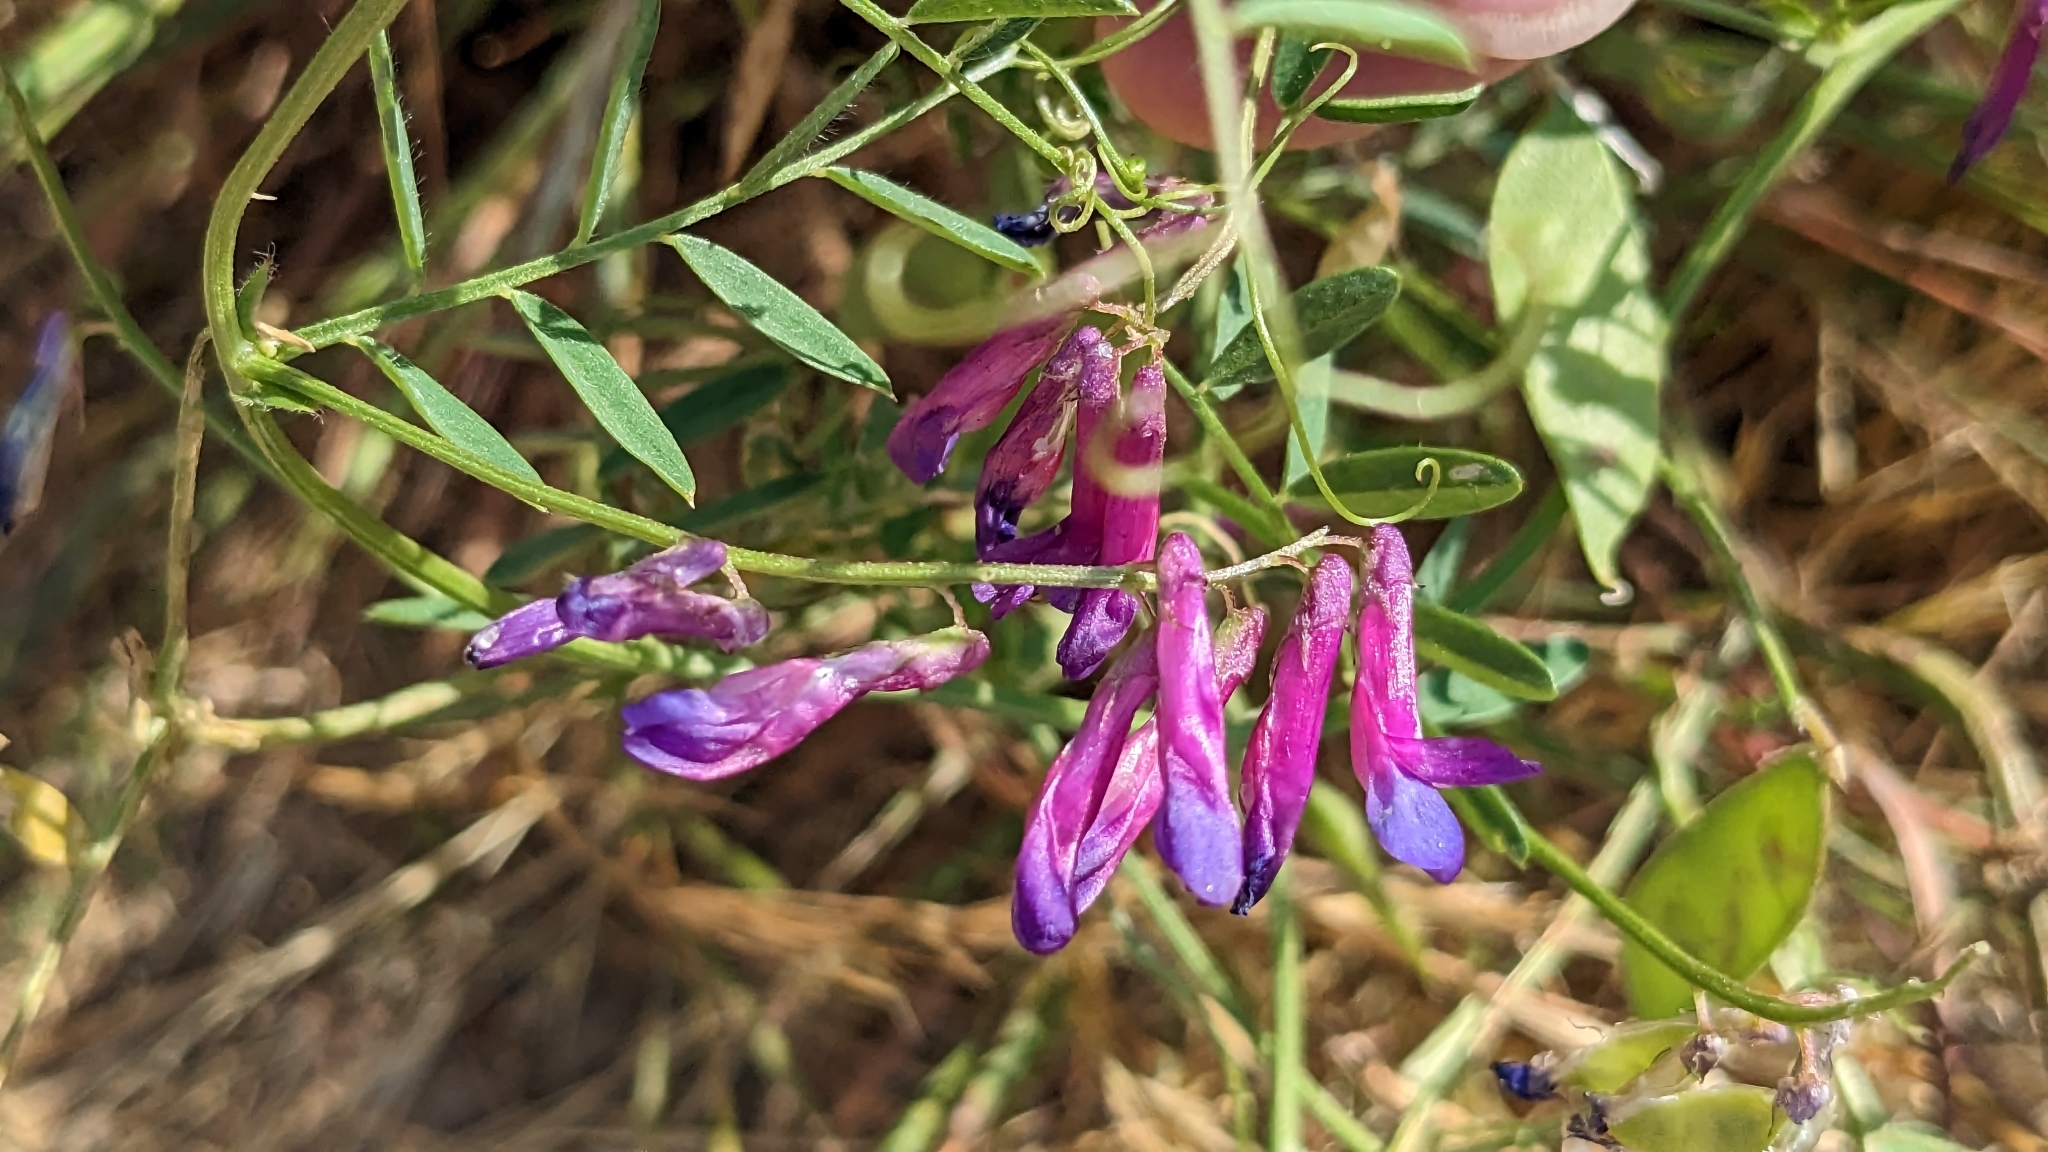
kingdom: Plantae
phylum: Tracheophyta
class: Magnoliopsida
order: Fabales
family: Fabaceae
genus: Vicia
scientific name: Vicia villosa
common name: Fodder vetch
